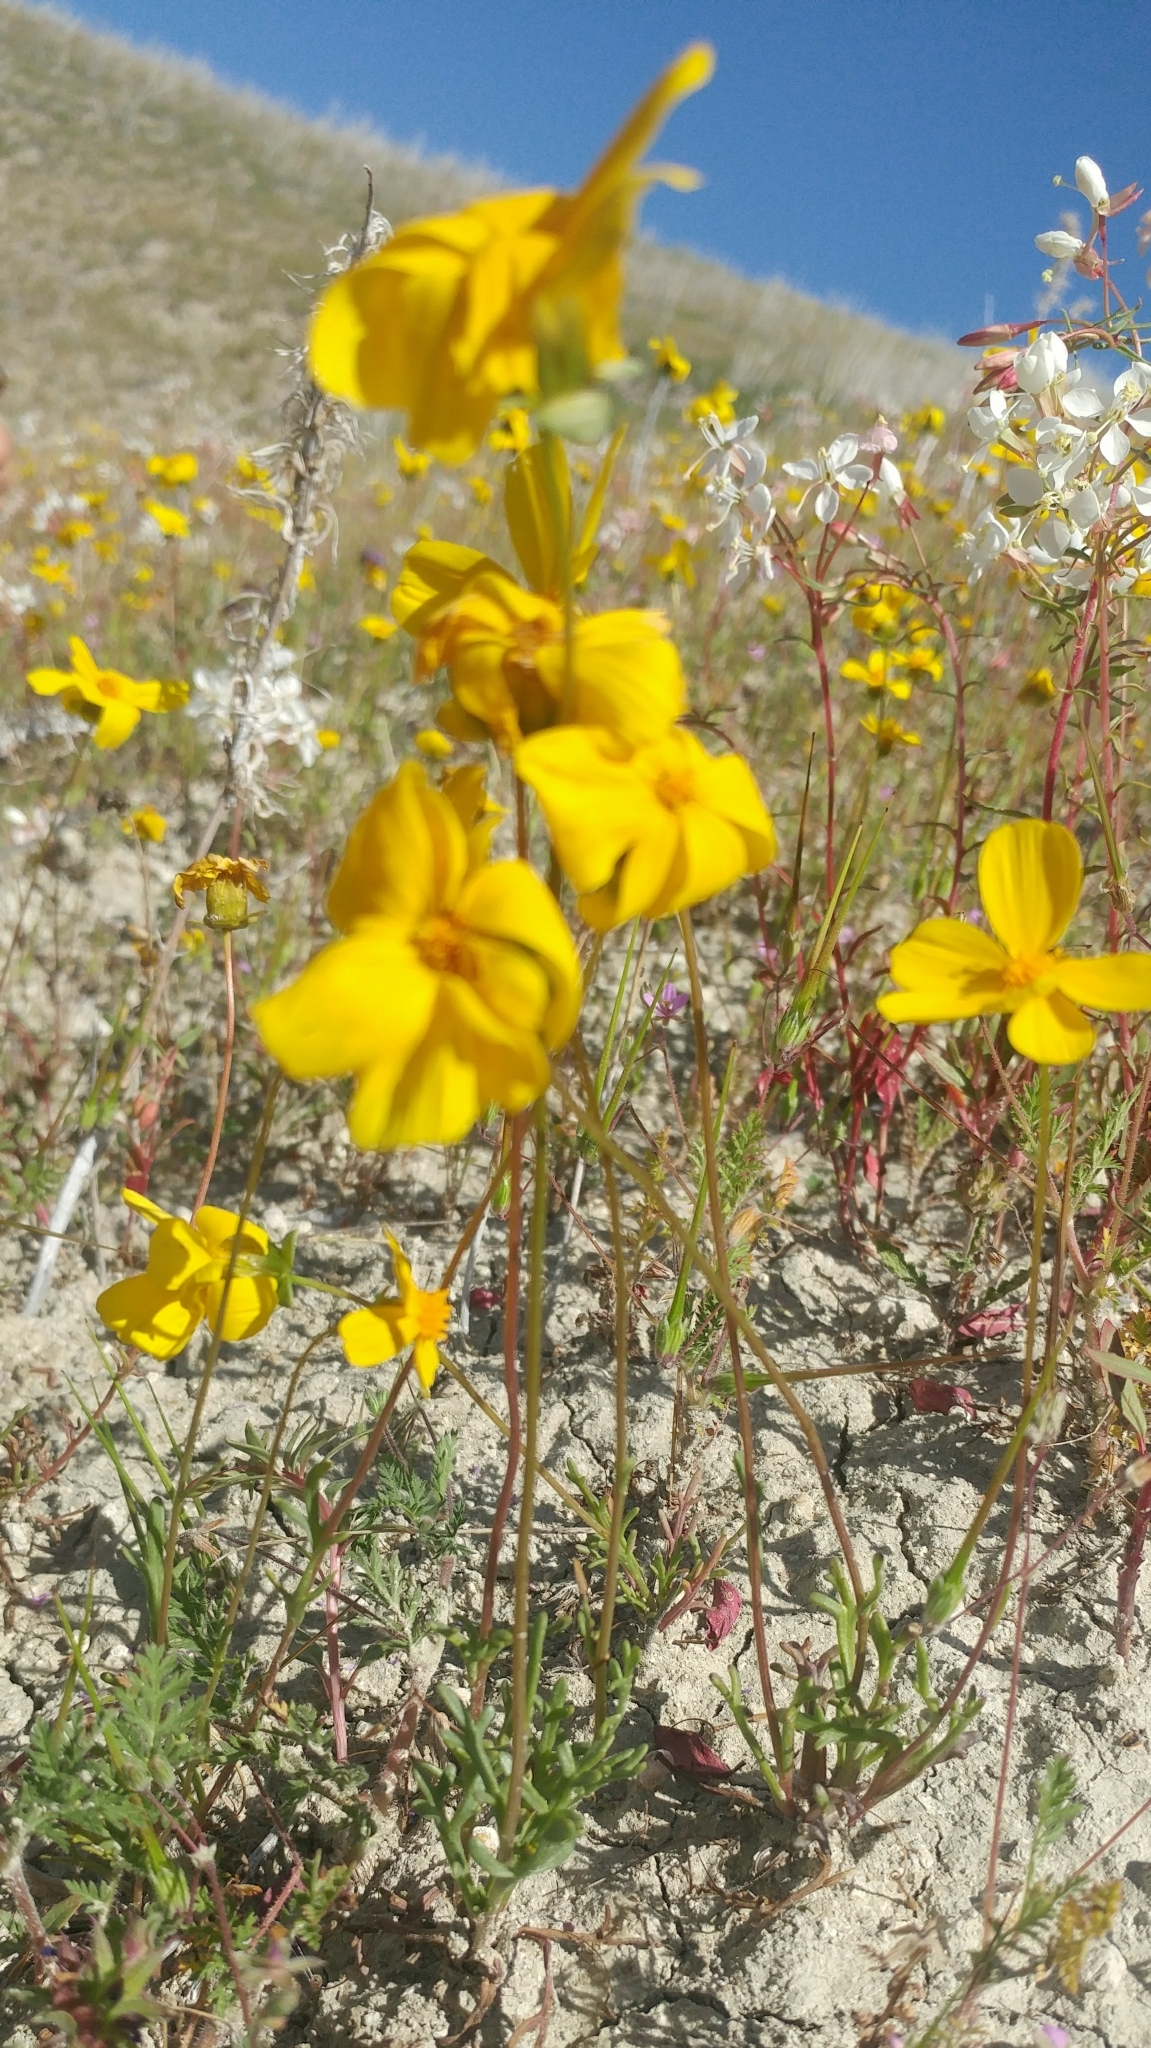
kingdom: Plantae
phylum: Tracheophyta
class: Magnoliopsida
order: Asterales
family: Asteraceae
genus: Coreopsis
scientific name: Coreopsis calliopsidea
